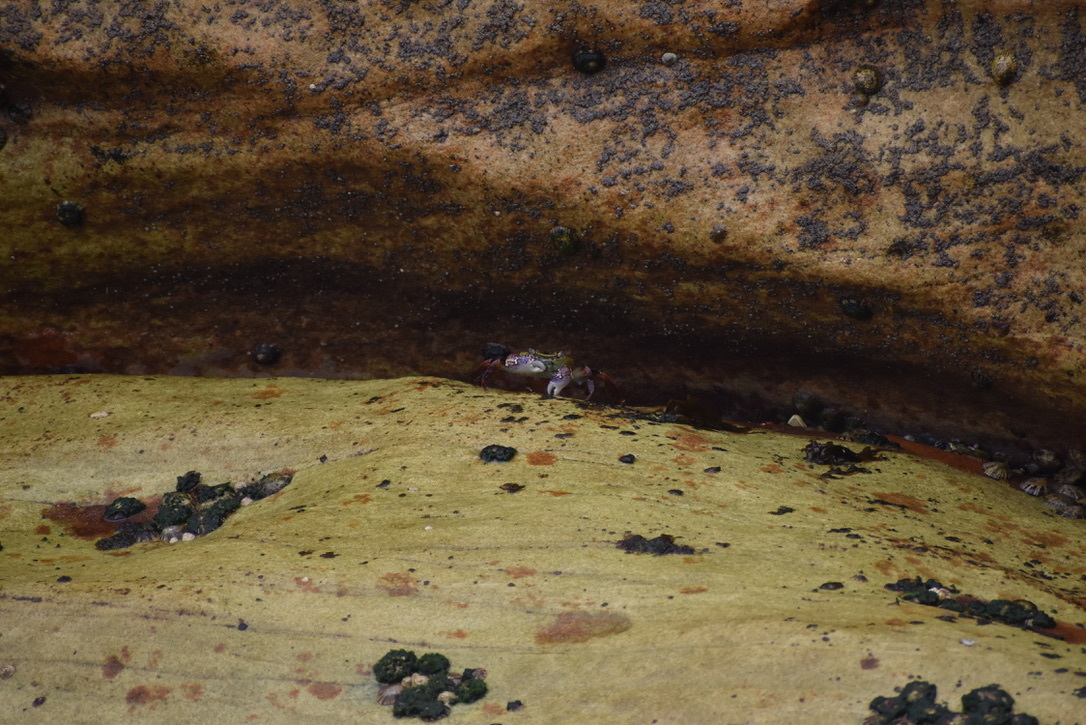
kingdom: Animalia
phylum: Arthropoda
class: Malacostraca
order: Decapoda
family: Grapsidae
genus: Leptograpsus
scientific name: Leptograpsus variegatus
